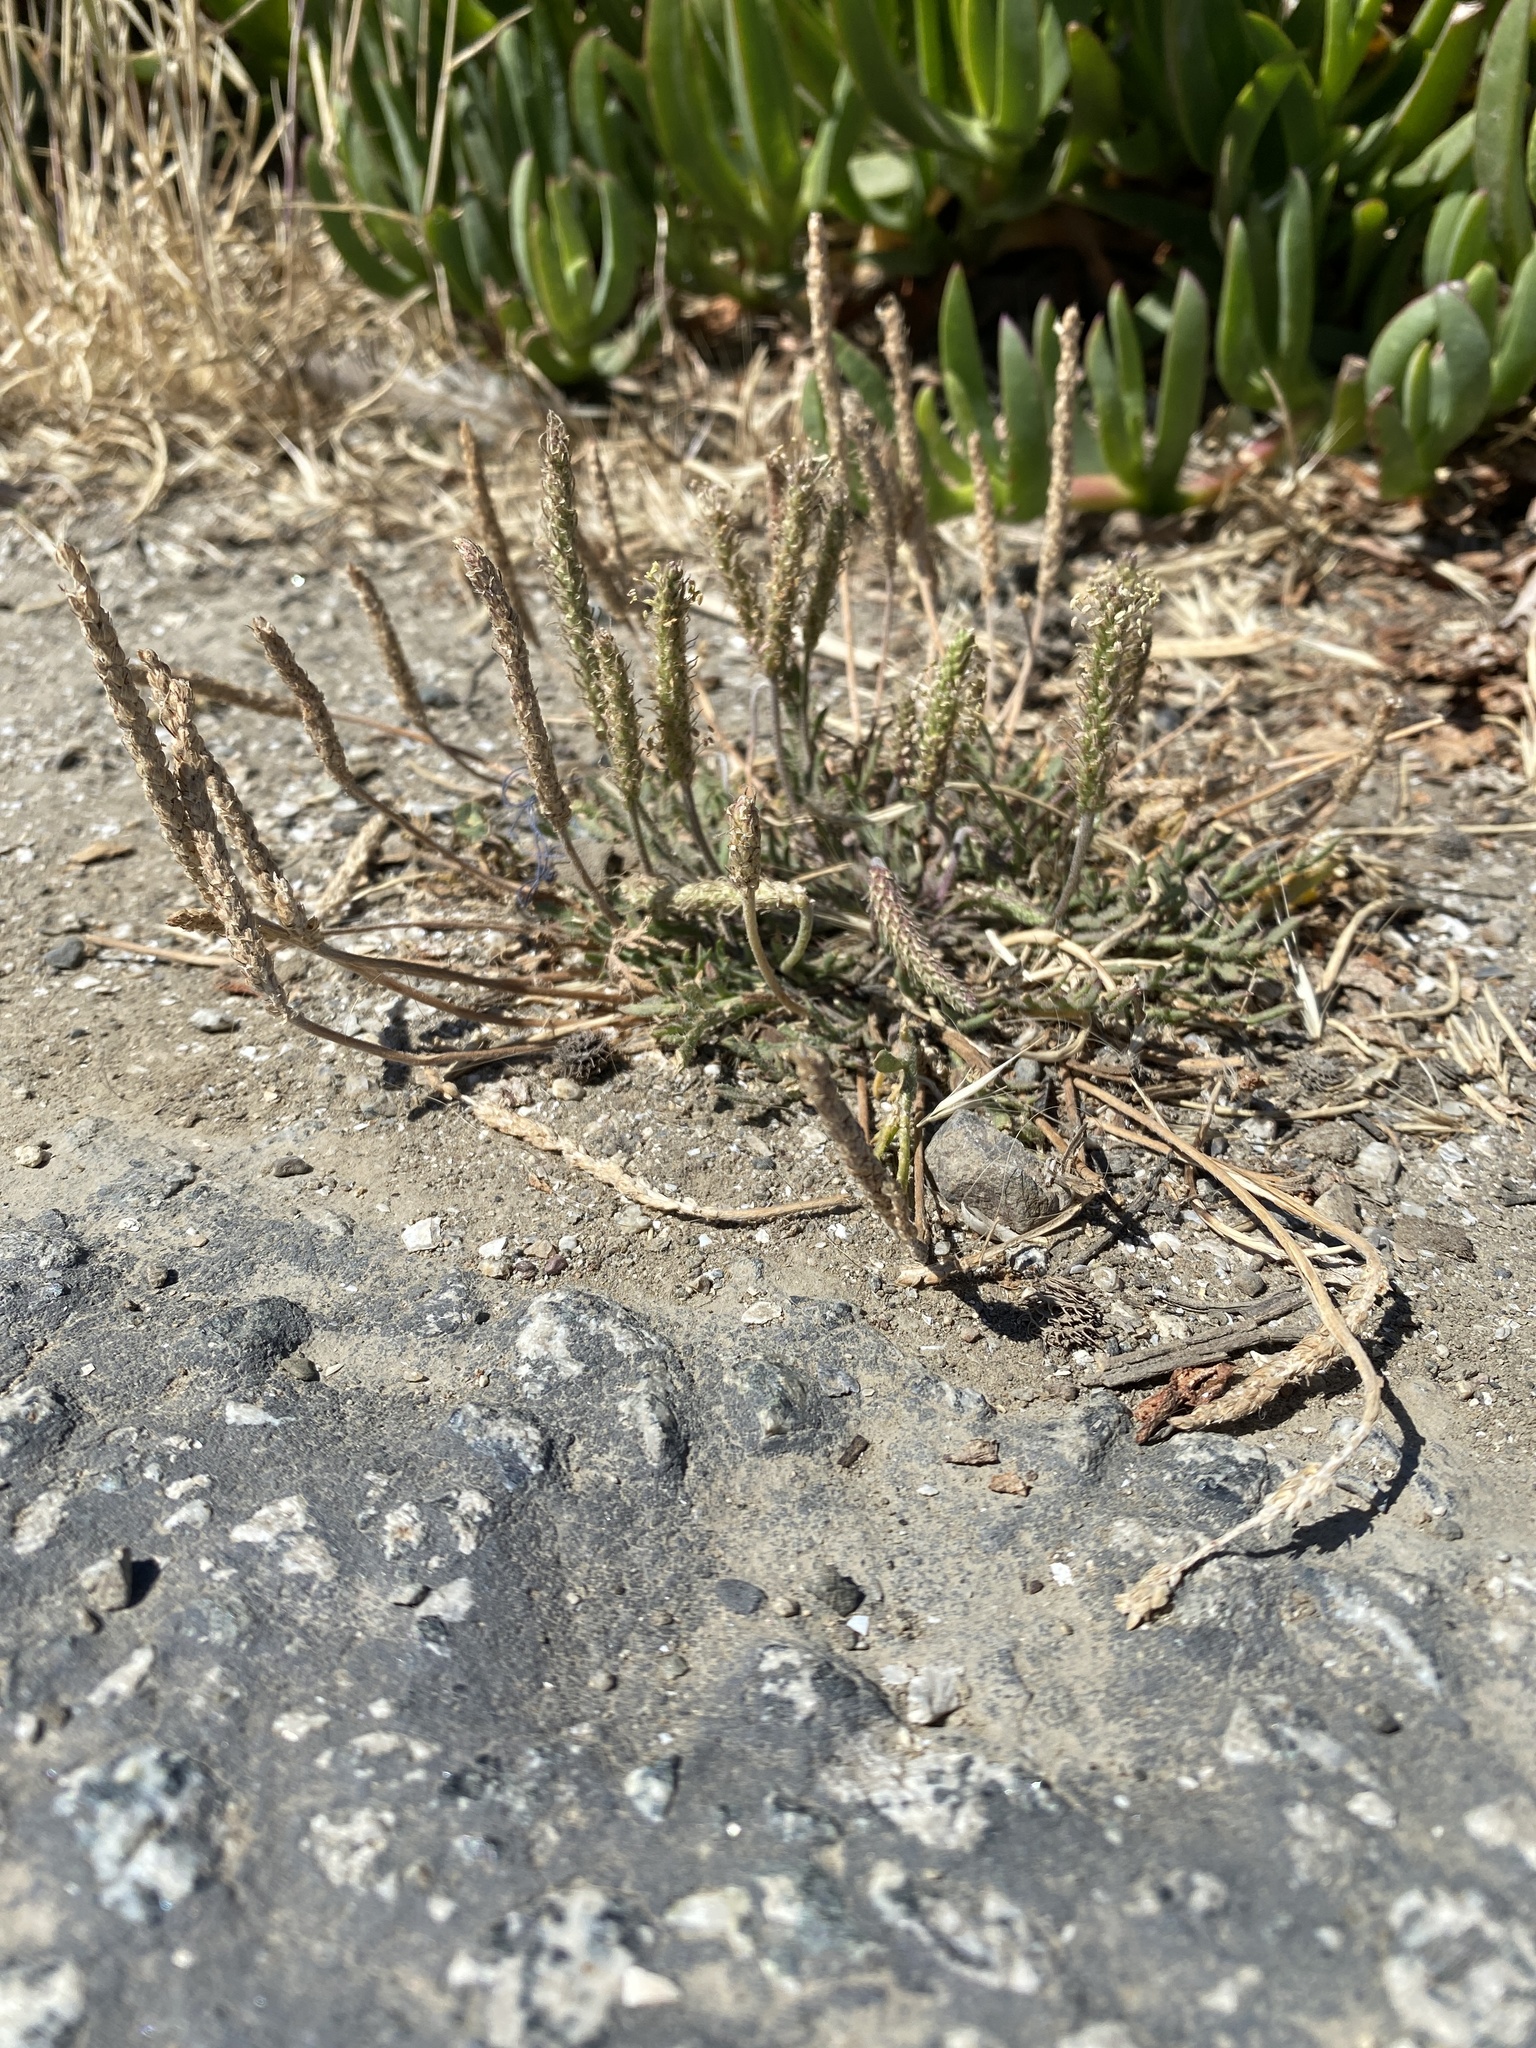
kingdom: Plantae
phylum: Tracheophyta
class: Magnoliopsida
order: Lamiales
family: Plantaginaceae
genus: Plantago
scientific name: Plantago coronopus
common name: Buck's-horn plantain
